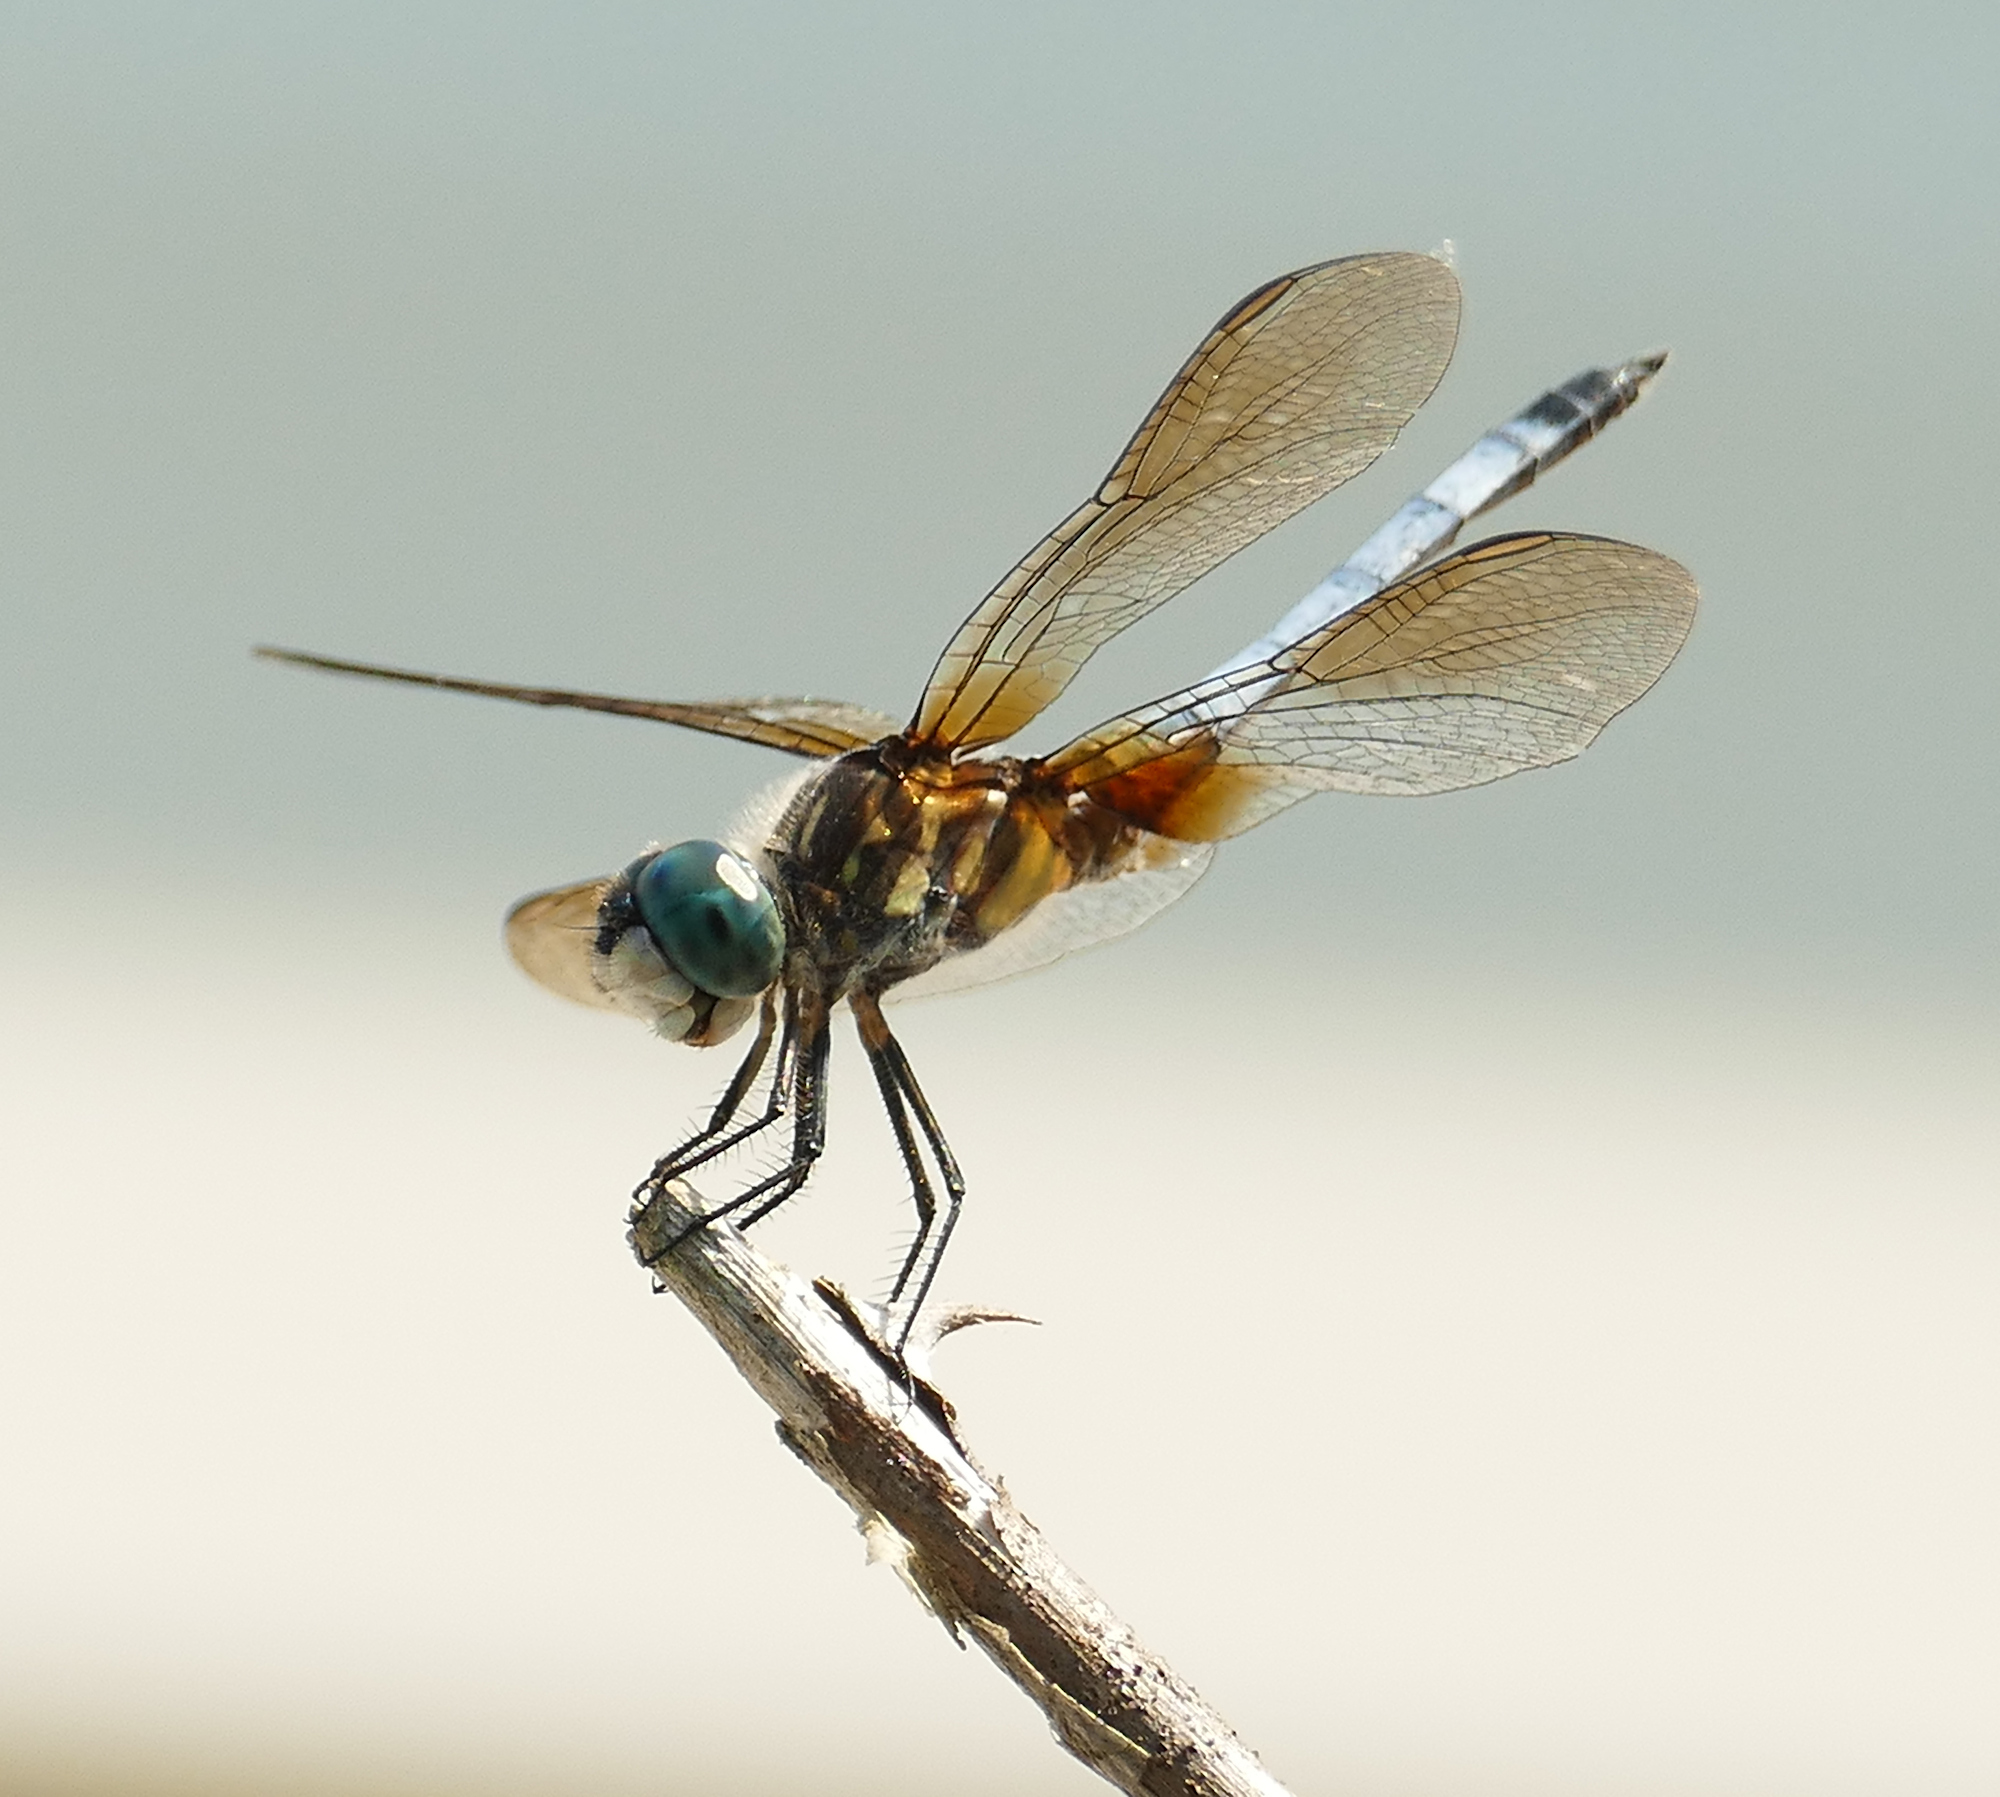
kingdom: Animalia
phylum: Arthropoda
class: Insecta
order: Odonata
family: Libellulidae
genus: Pachydiplax
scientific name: Pachydiplax longipennis
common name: Blue dasher
